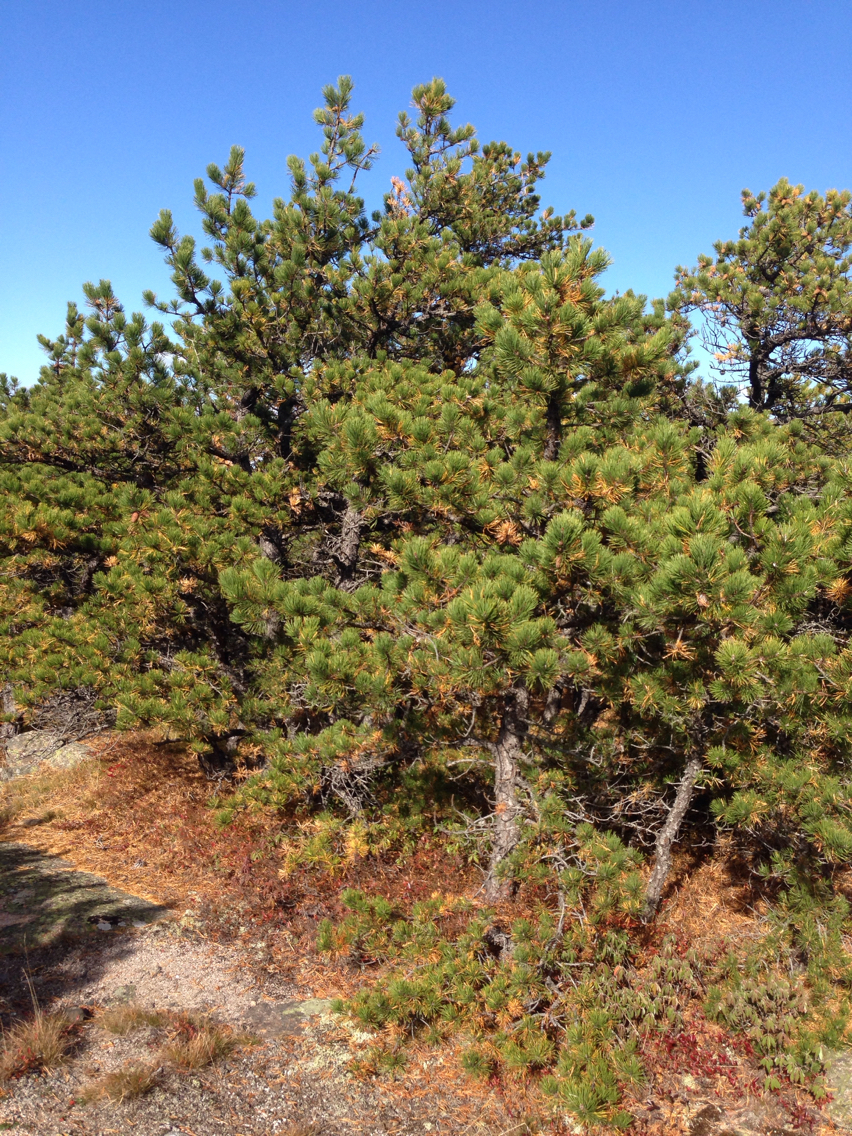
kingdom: Plantae
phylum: Tracheophyta
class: Pinopsida
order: Pinales
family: Pinaceae
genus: Pinus
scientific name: Pinus rigida
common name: Pitch pine
